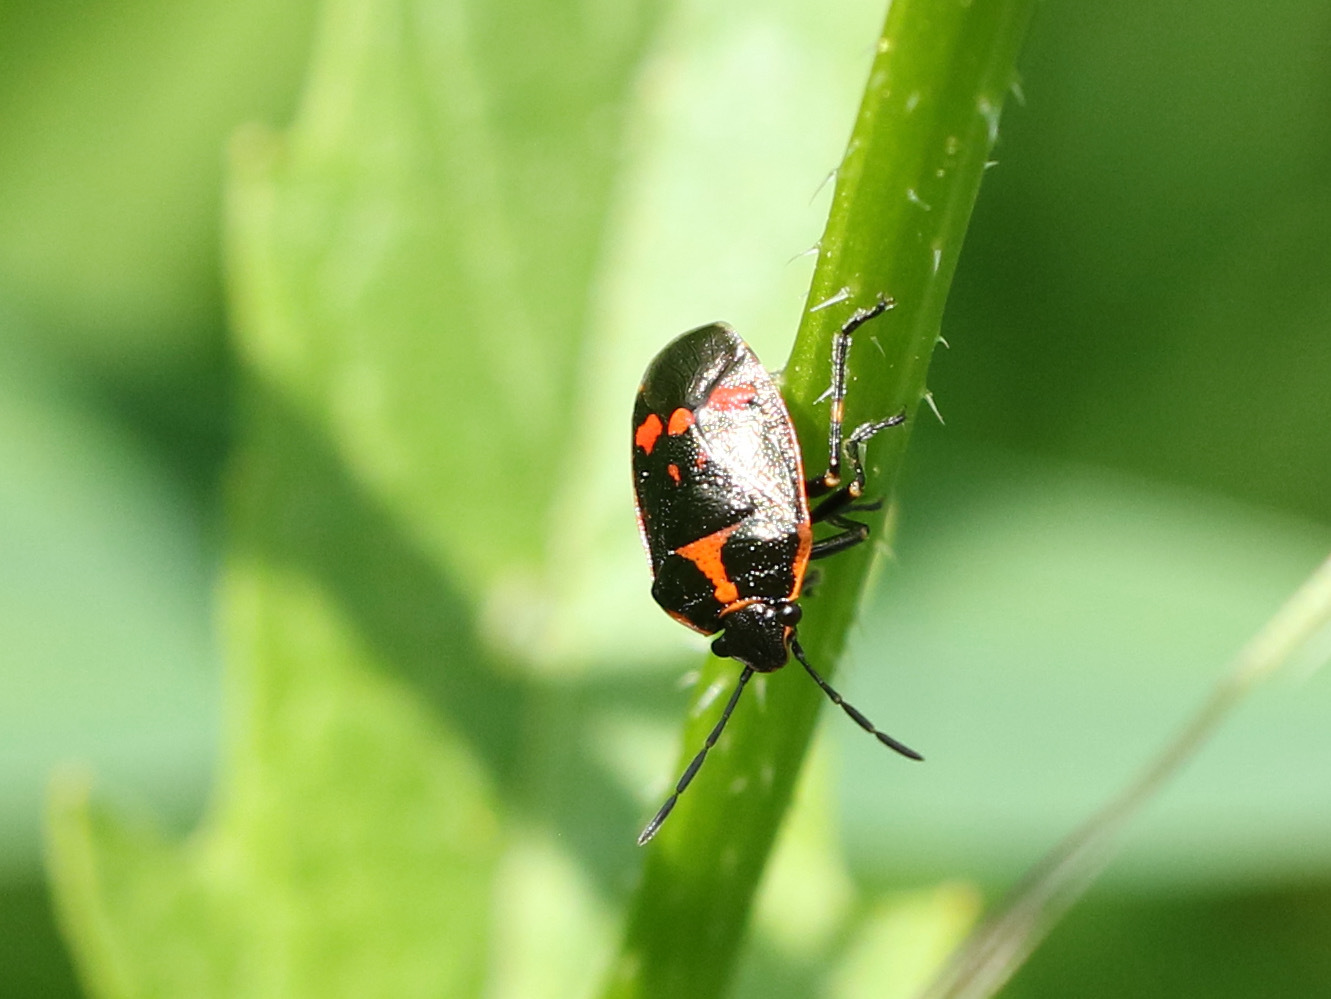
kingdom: Animalia
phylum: Arthropoda
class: Insecta
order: Hemiptera
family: Pentatomidae
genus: Eurydema
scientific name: Eurydema oleracea
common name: Cabbage bug
